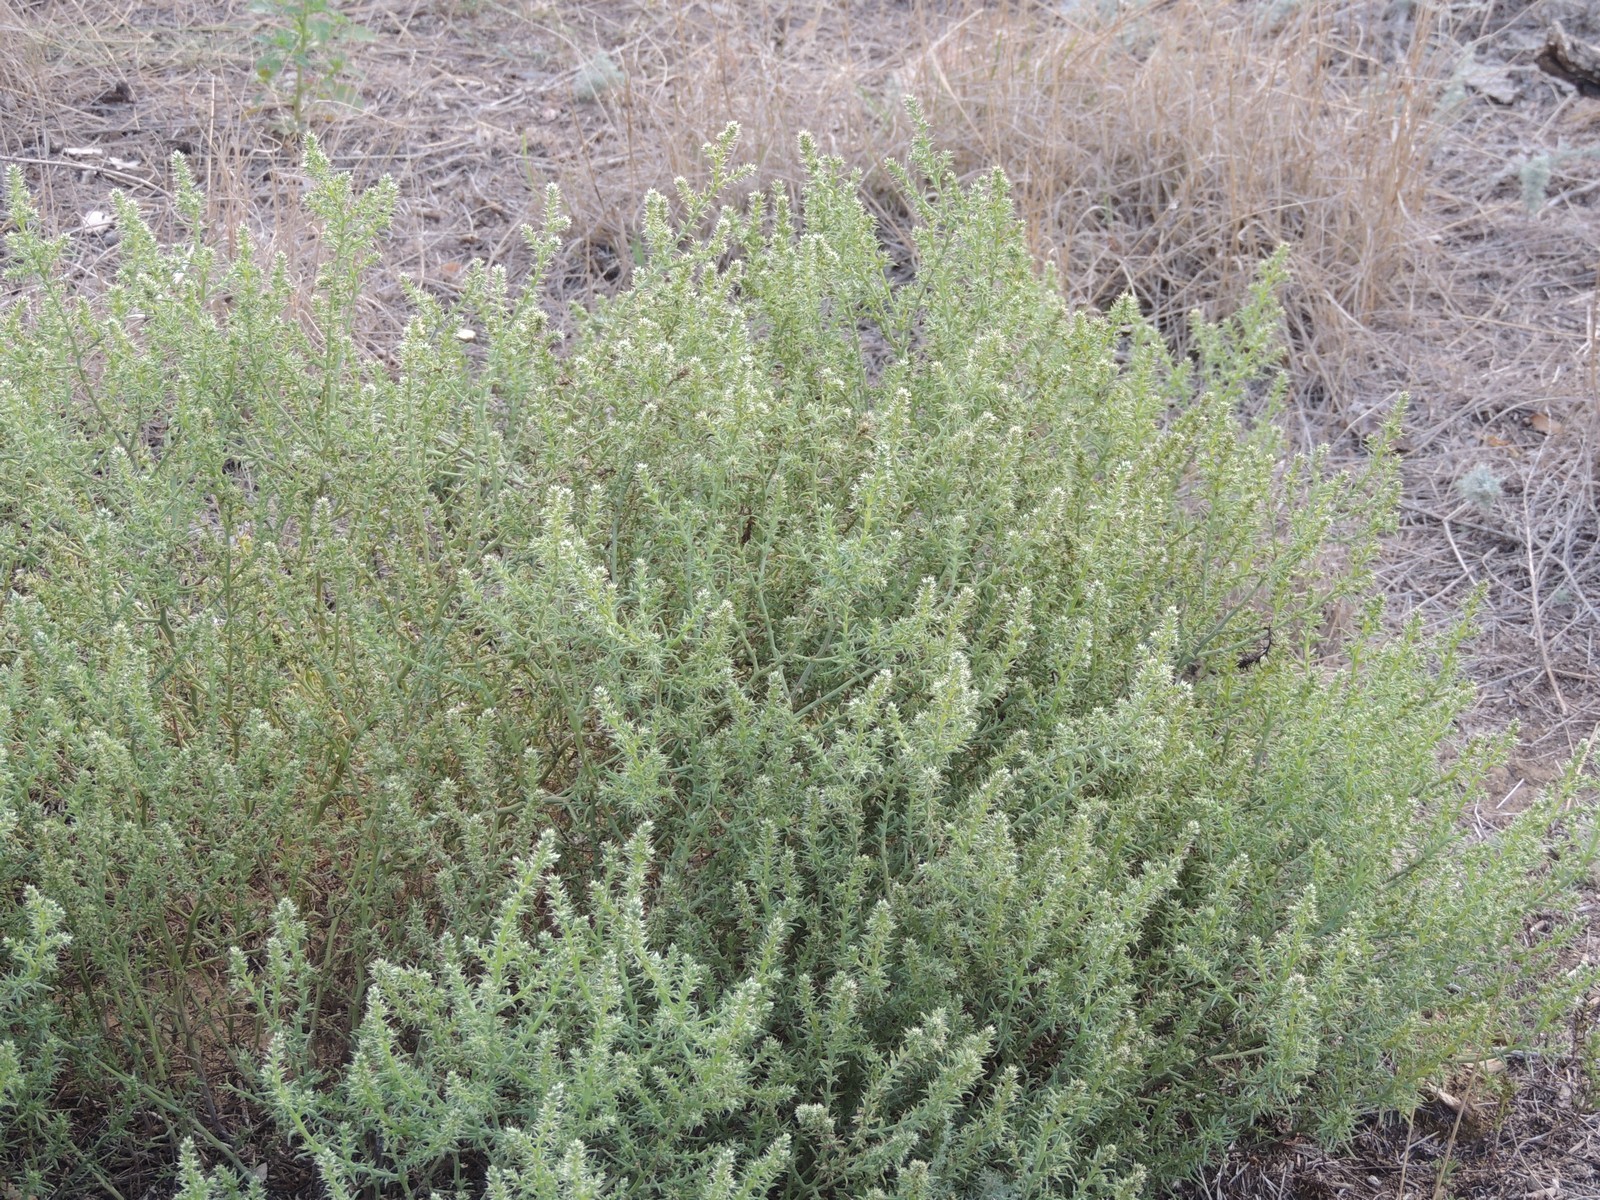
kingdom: Plantae
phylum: Tracheophyta
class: Magnoliopsida
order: Caryophyllales
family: Amaranthaceae
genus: Salsola
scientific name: Salsola paulsenii
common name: Barbwire russian thistle
